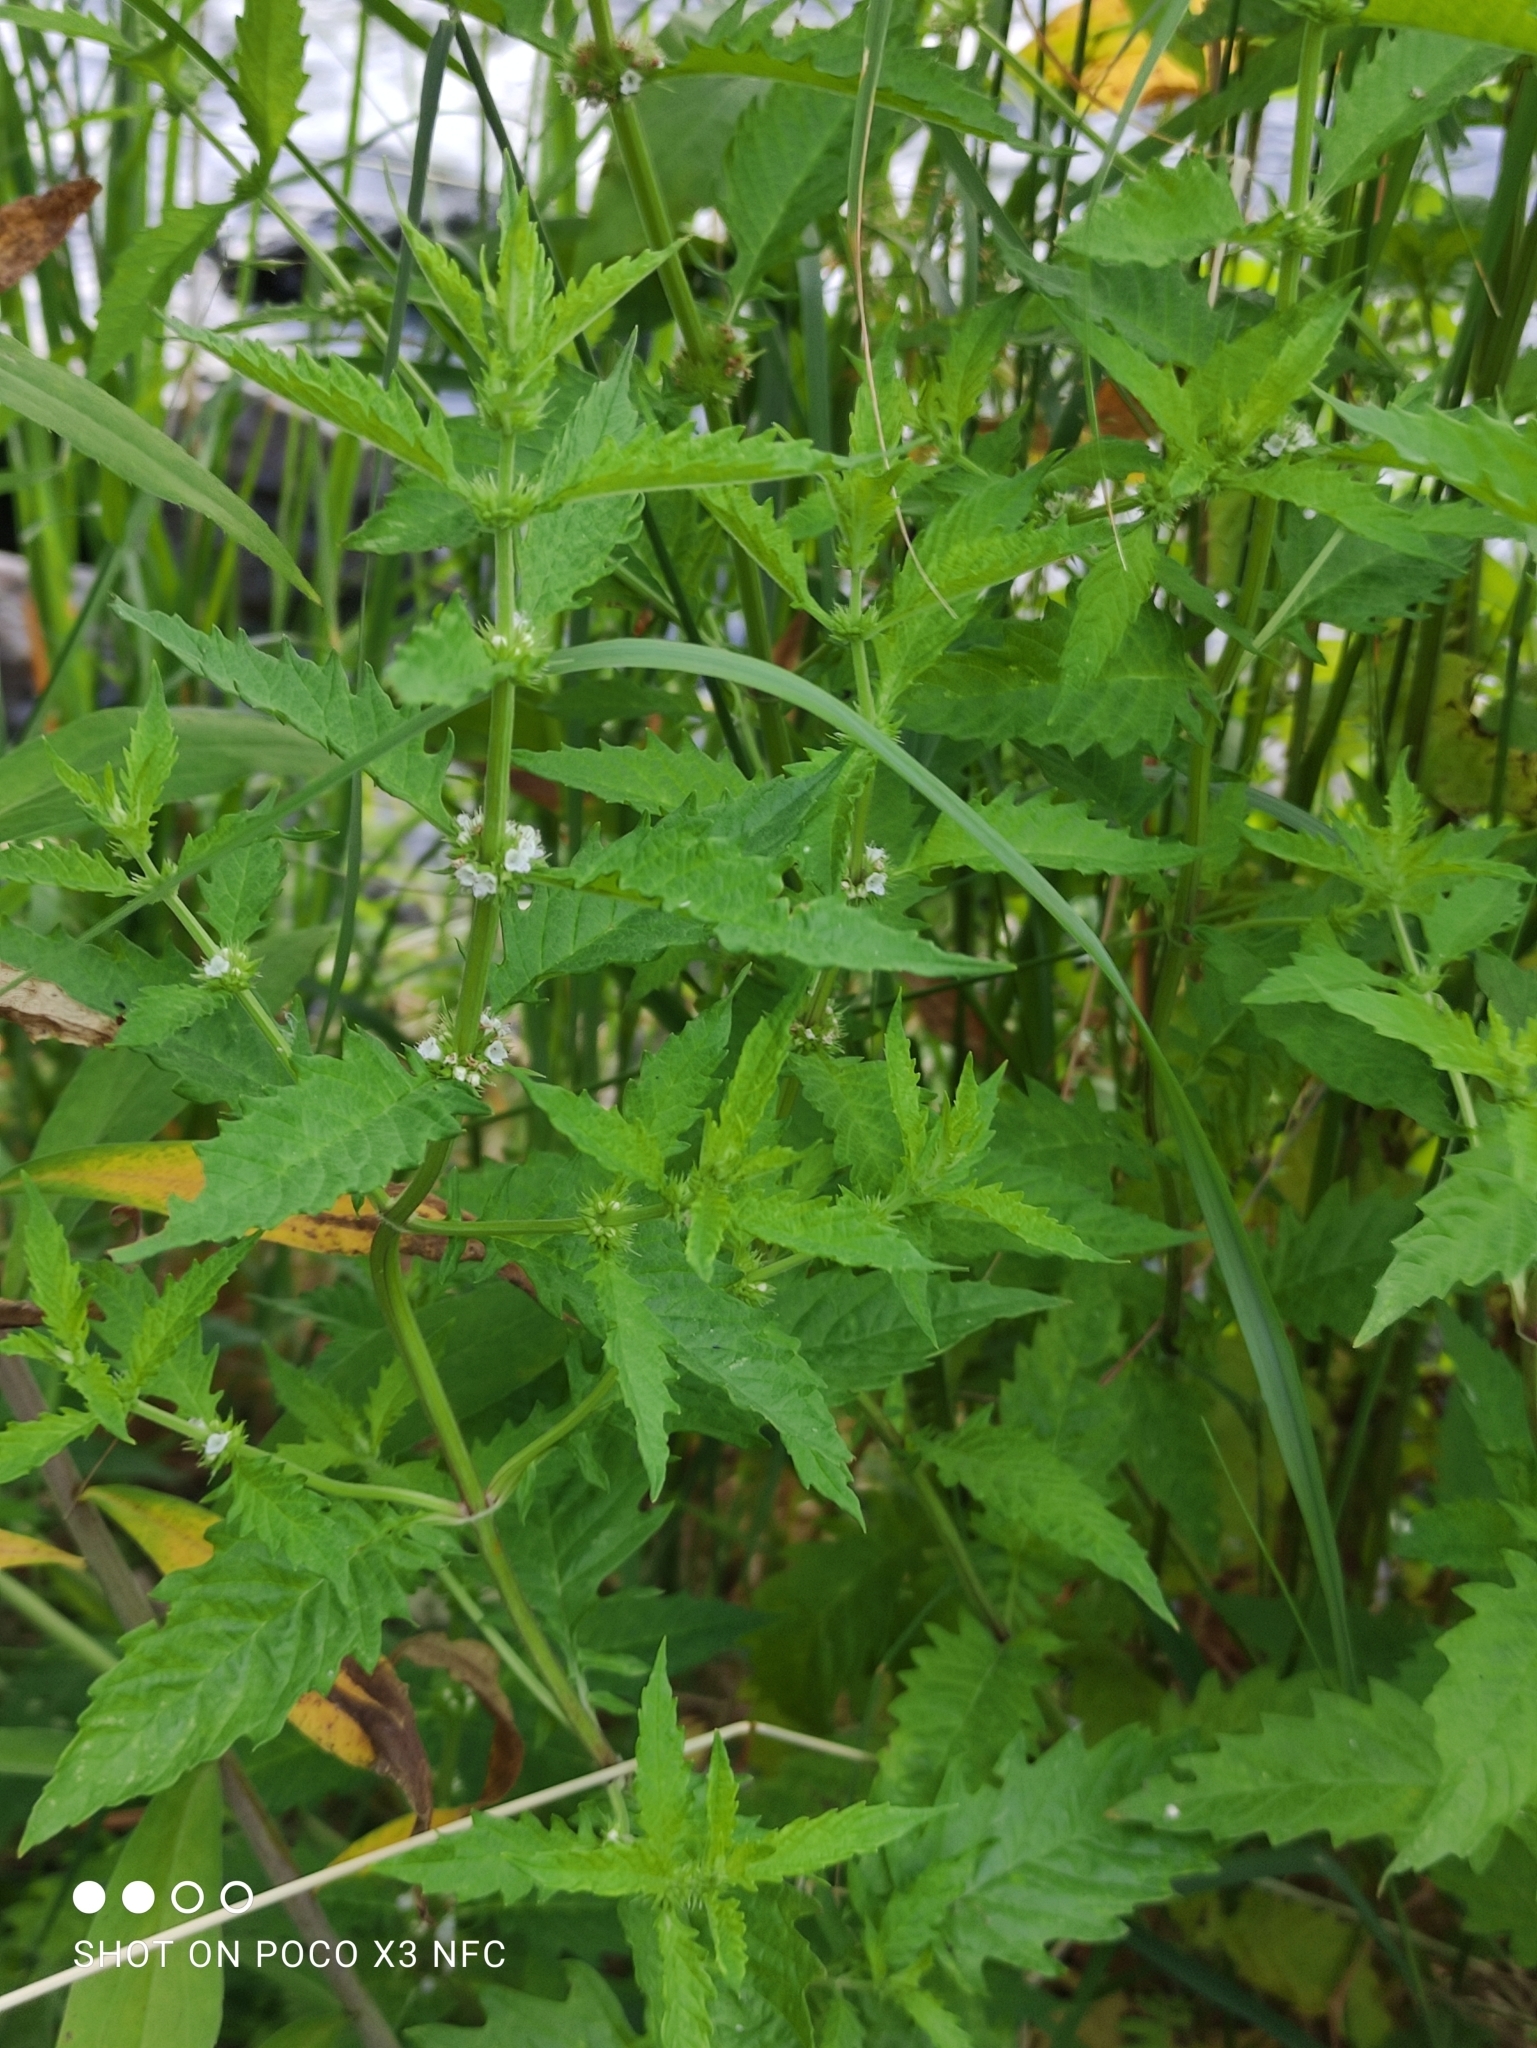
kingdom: Plantae
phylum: Tracheophyta
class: Magnoliopsida
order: Lamiales
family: Lamiaceae
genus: Lycopus
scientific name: Lycopus europaeus
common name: European bugleweed
